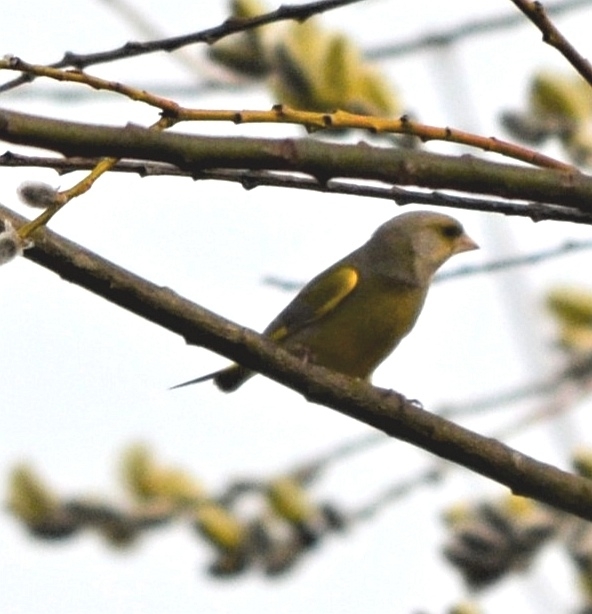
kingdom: Plantae
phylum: Tracheophyta
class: Liliopsida
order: Poales
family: Poaceae
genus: Chloris
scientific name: Chloris chloris
